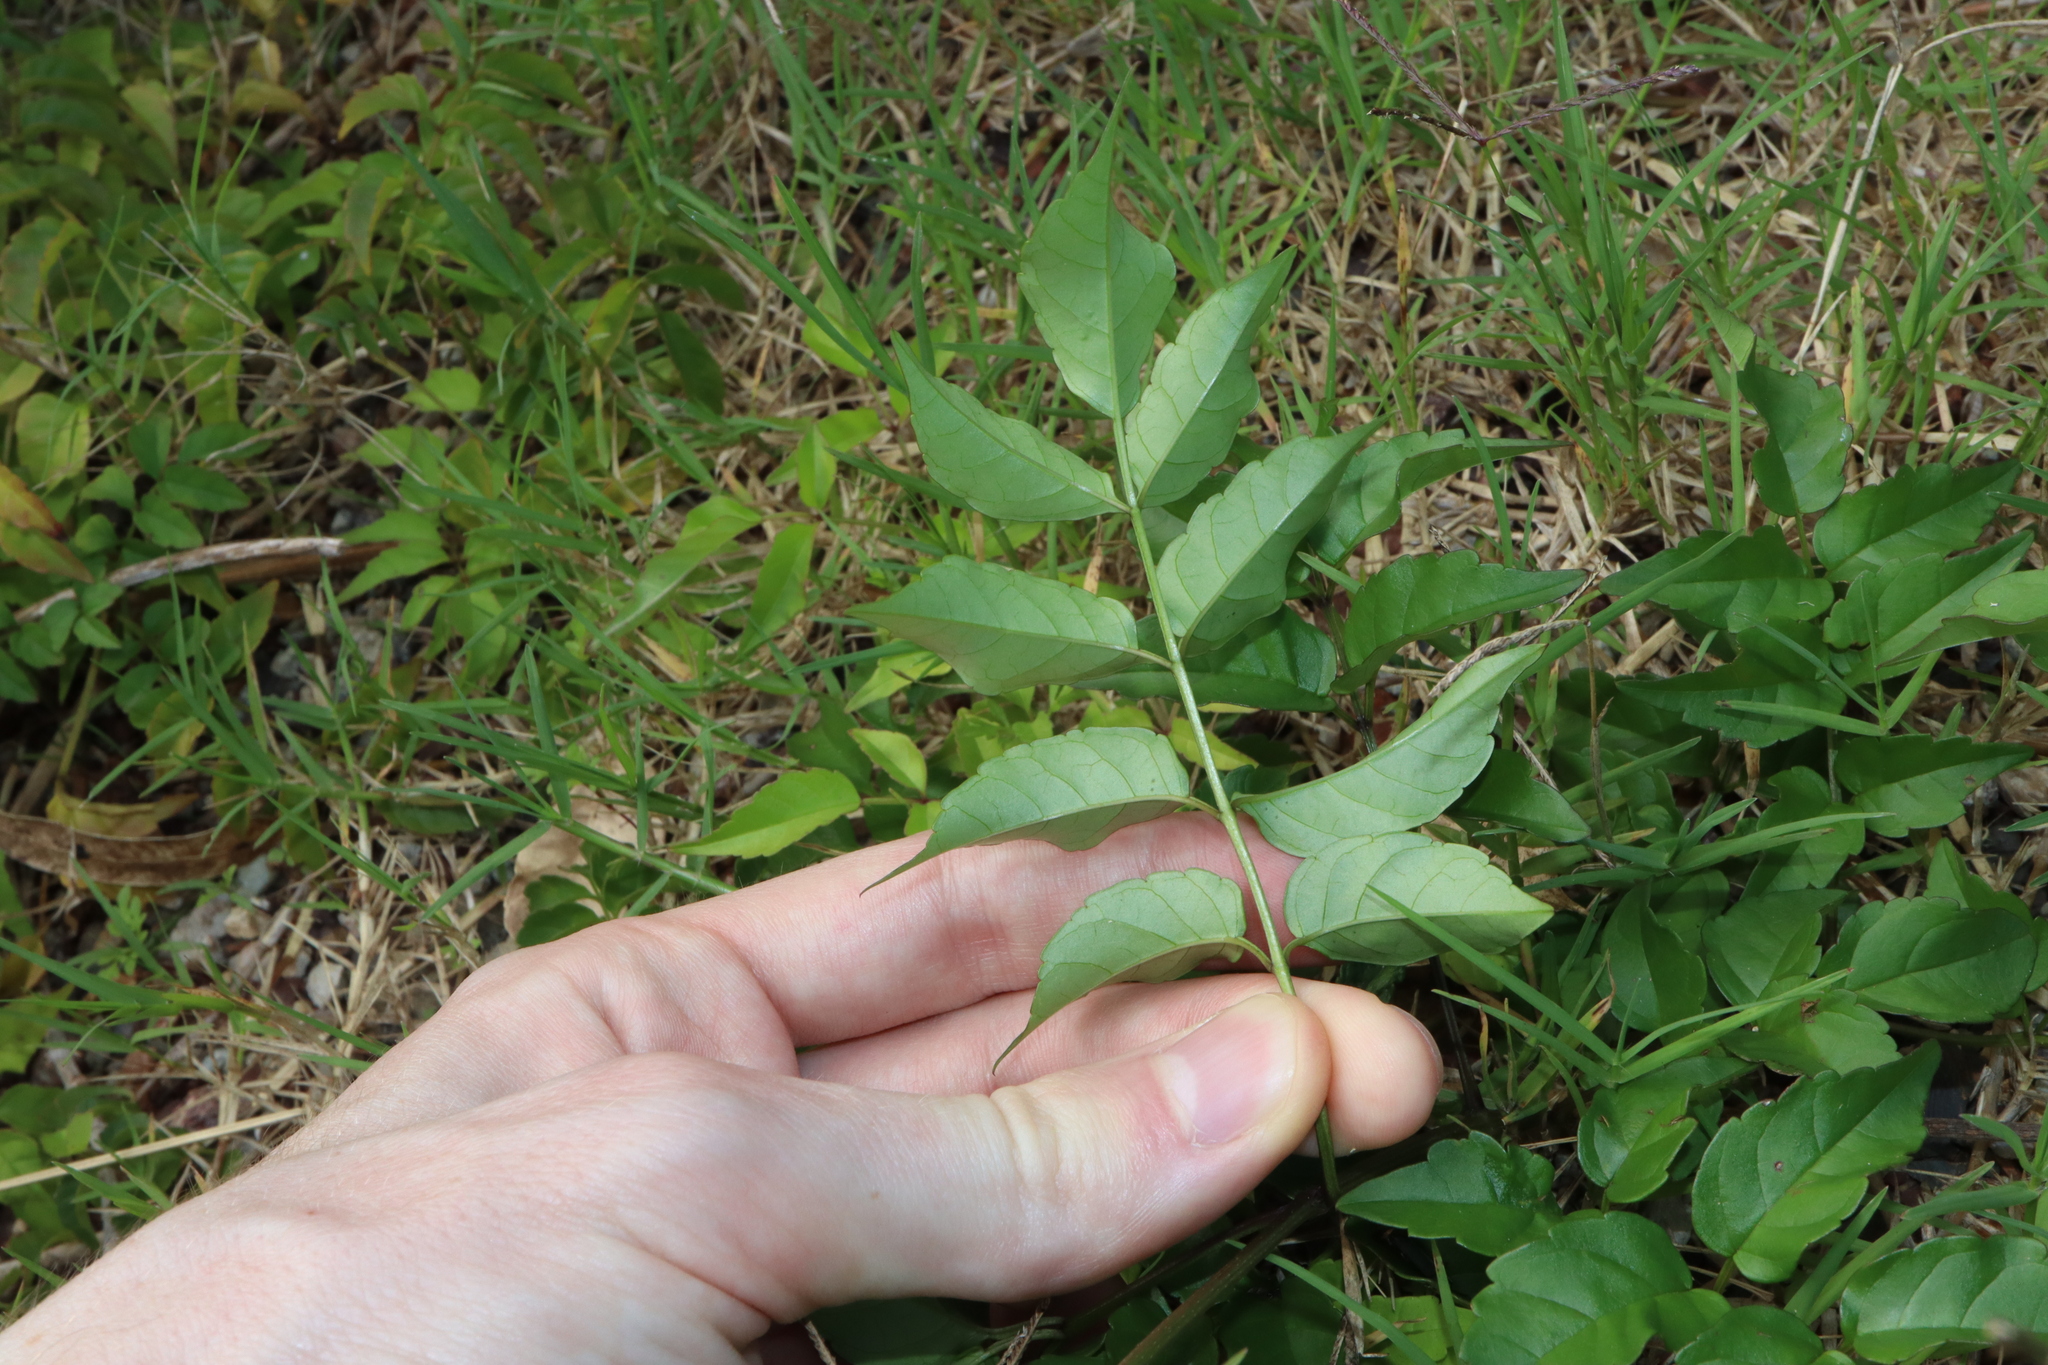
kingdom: Plantae
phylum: Tracheophyta
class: Magnoliopsida
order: Lamiales
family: Bignoniaceae
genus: Podranea
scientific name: Podranea ricasoliana
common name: Zimbabwe creeper
